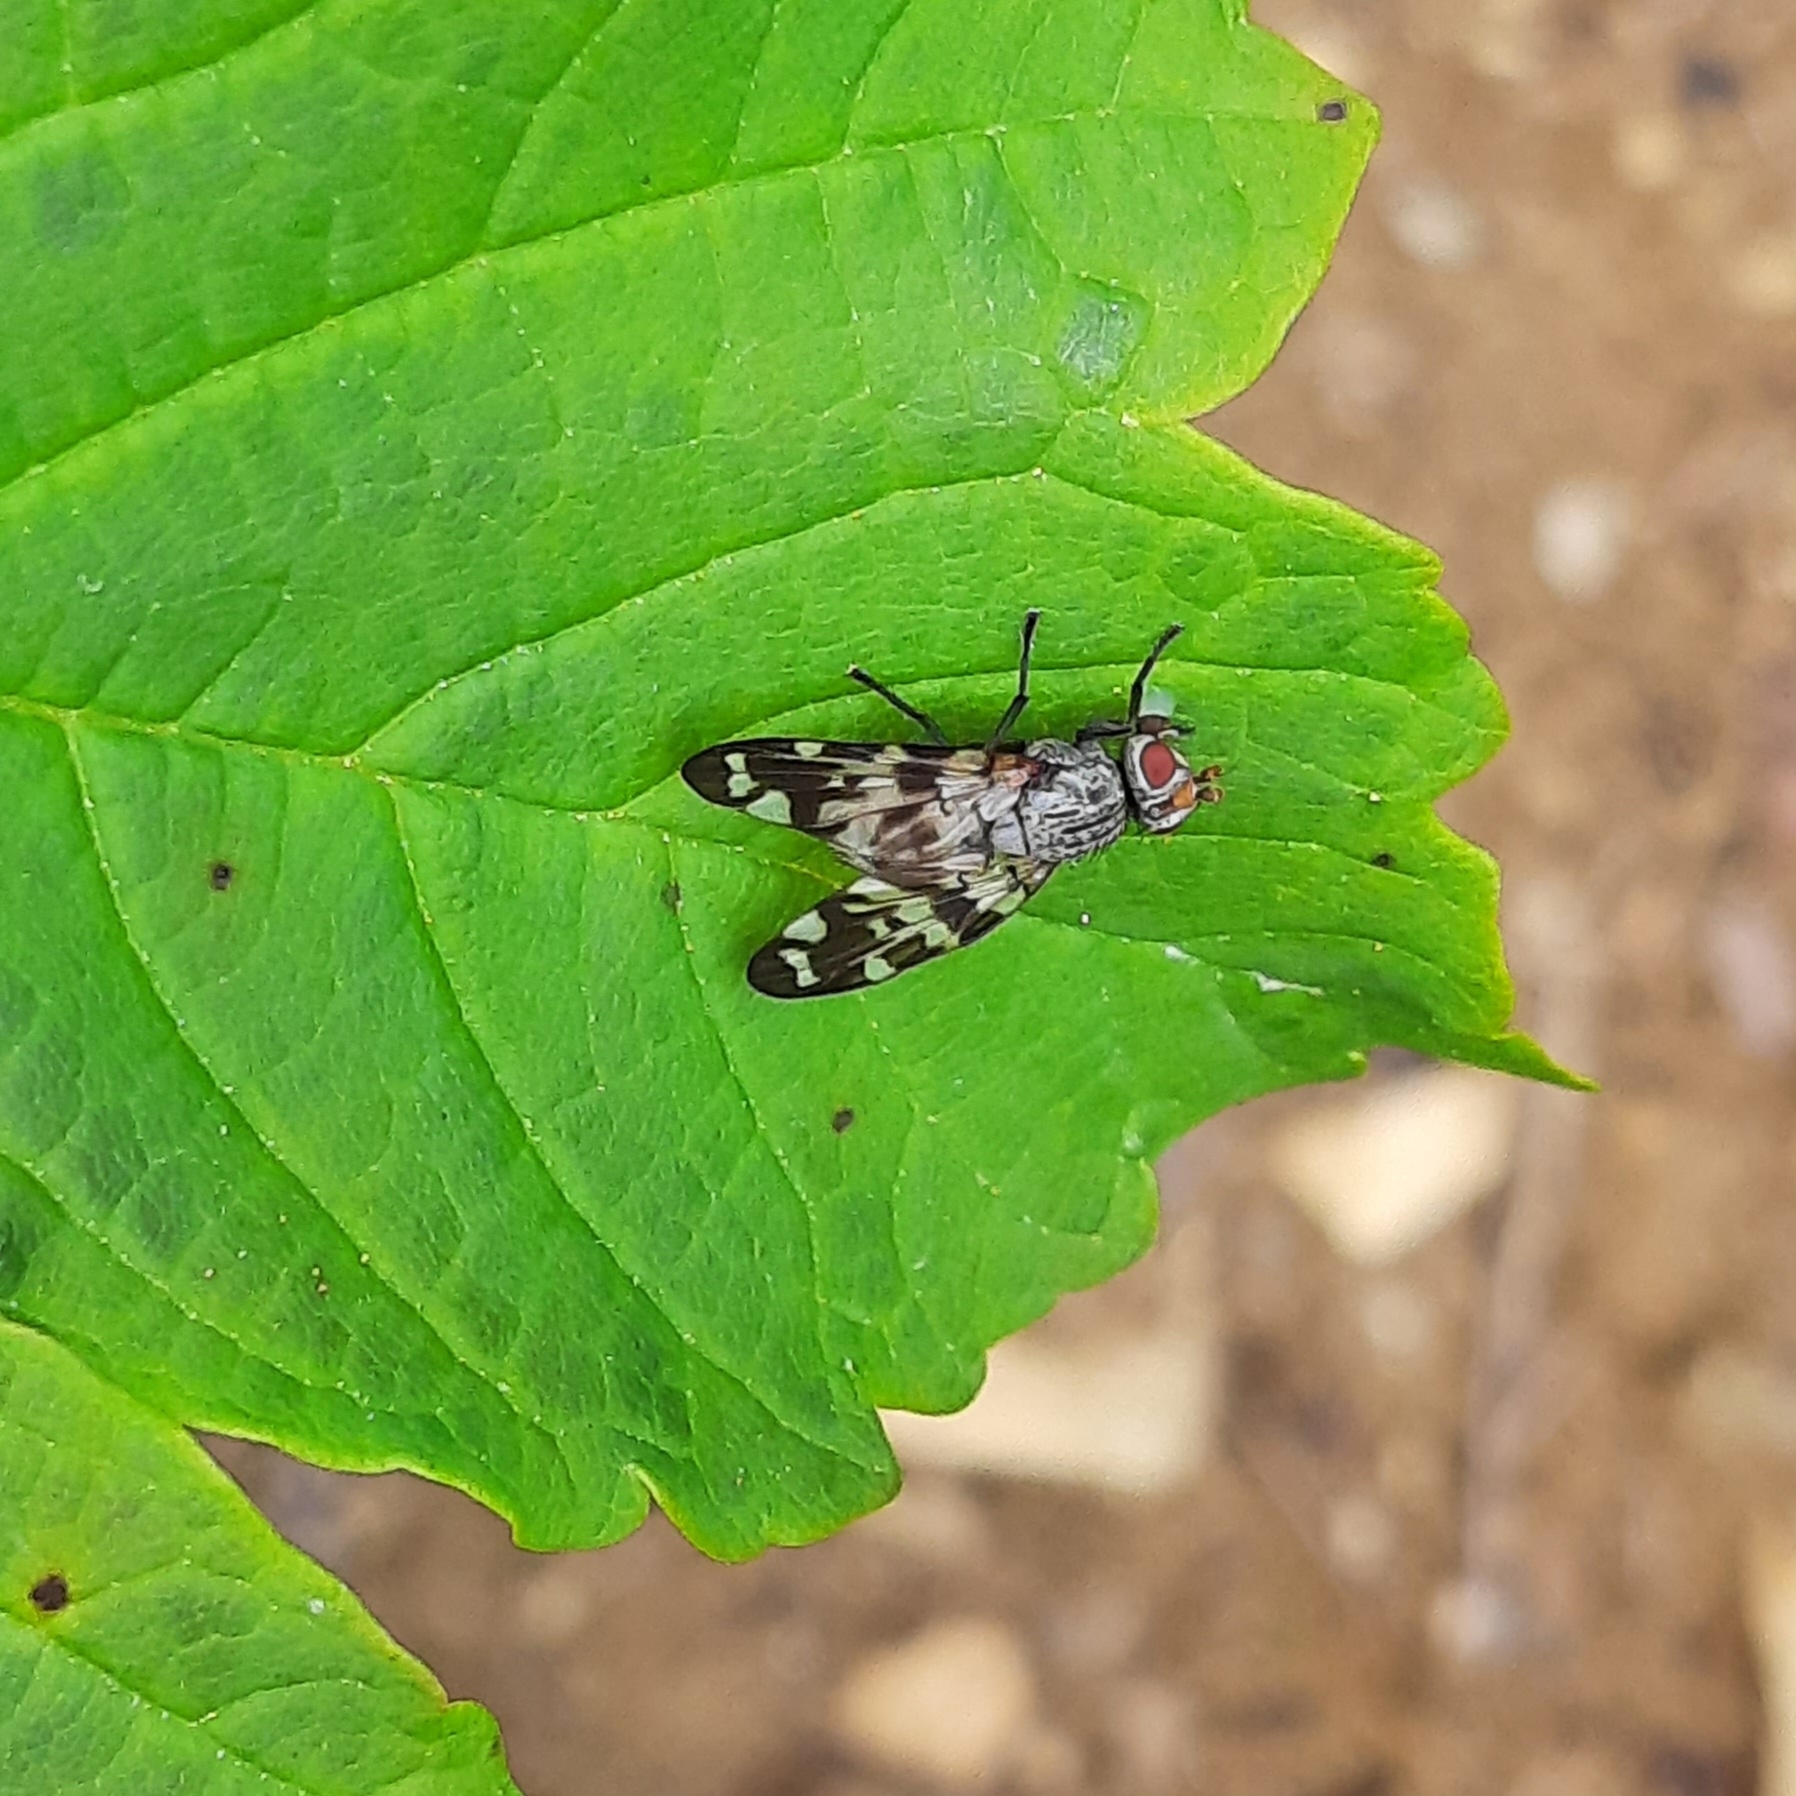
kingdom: Animalia
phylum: Arthropoda
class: Insecta
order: Diptera
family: Ulidiidae
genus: Otites
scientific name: Otites centralis
